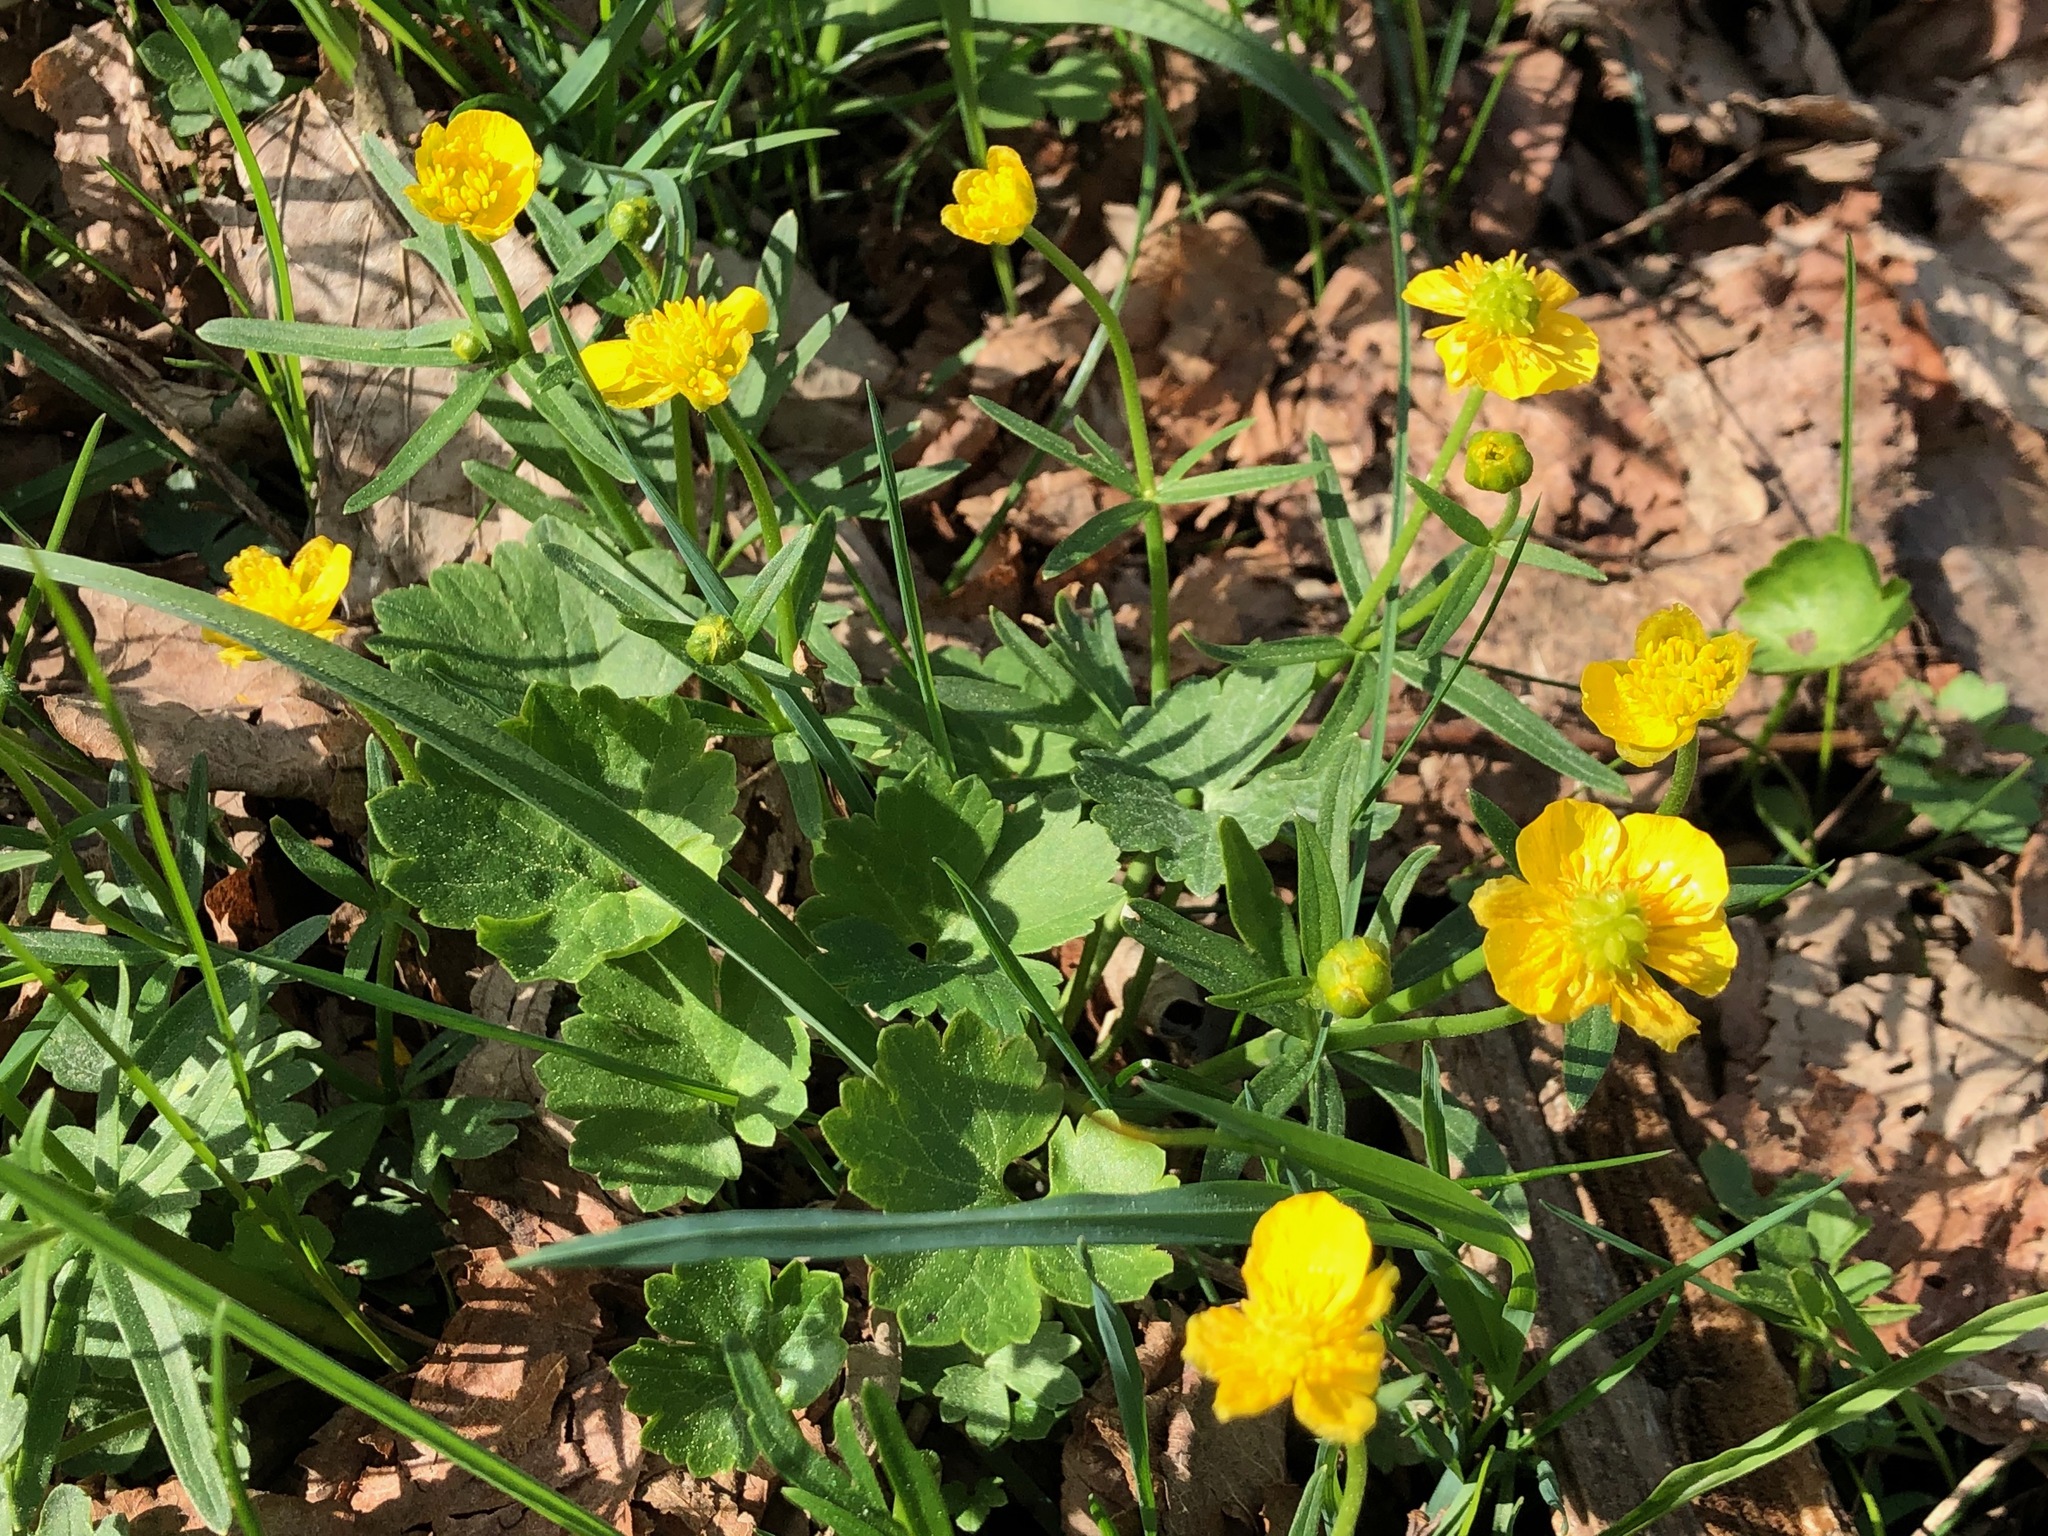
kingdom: Plantae
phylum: Tracheophyta
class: Magnoliopsida
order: Ranunculales
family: Ranunculaceae
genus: Ranunculus
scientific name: Ranunculus auricomus
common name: Goldilocks buttercup
